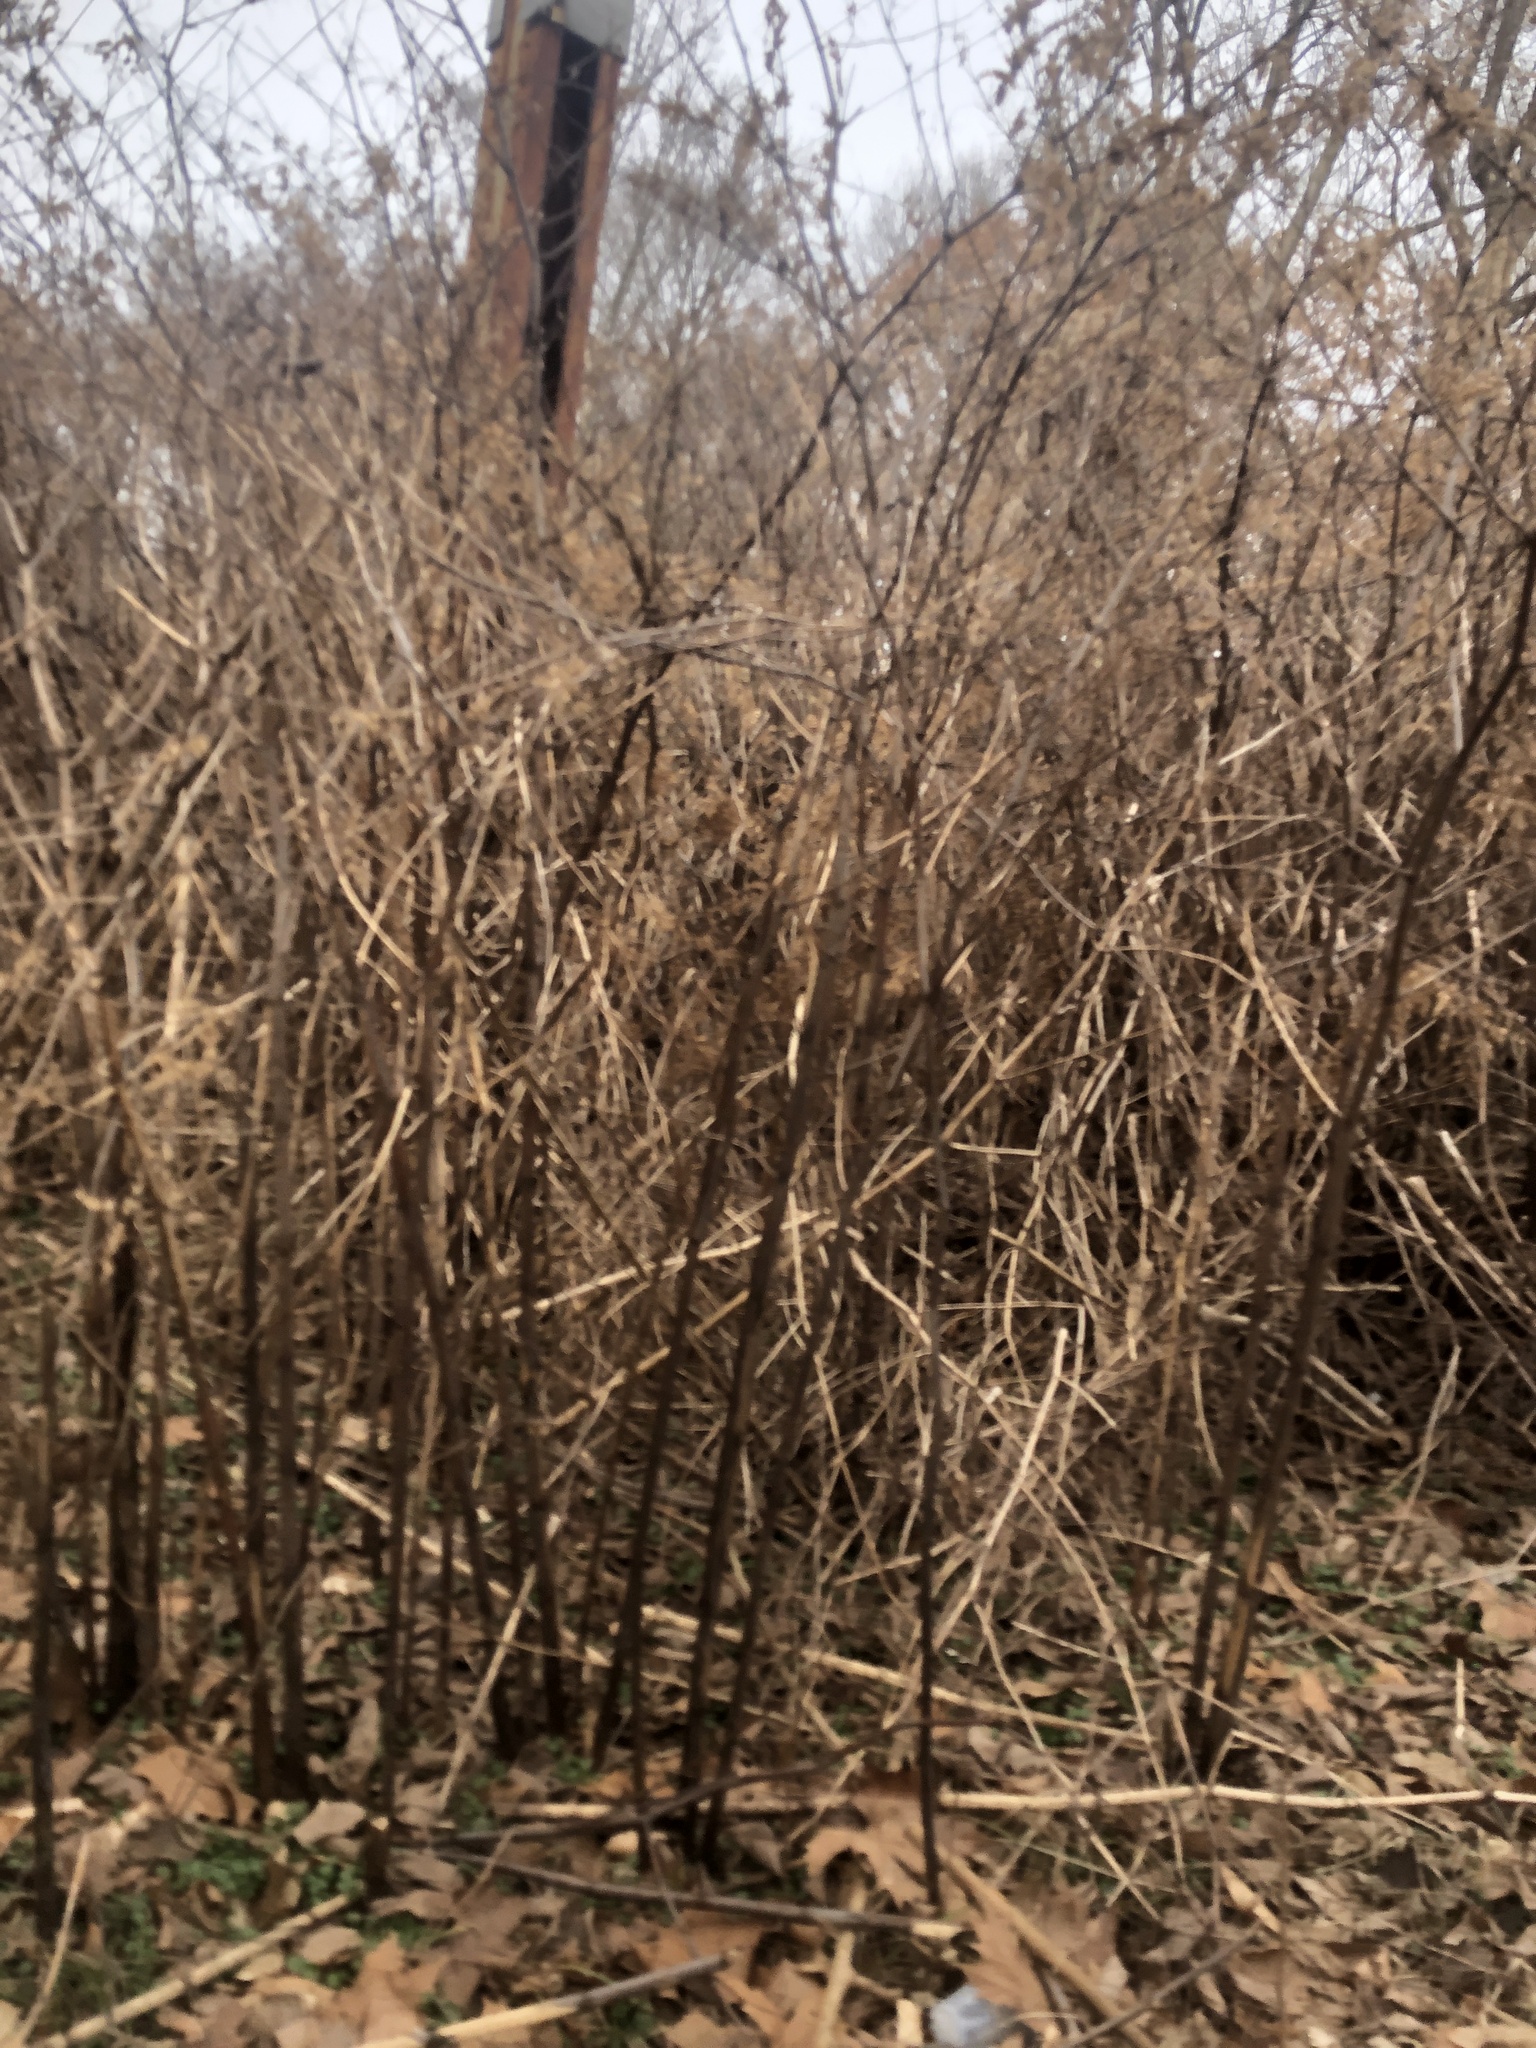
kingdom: Plantae
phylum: Tracheophyta
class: Magnoliopsida
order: Caryophyllales
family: Polygonaceae
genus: Reynoutria
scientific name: Reynoutria
